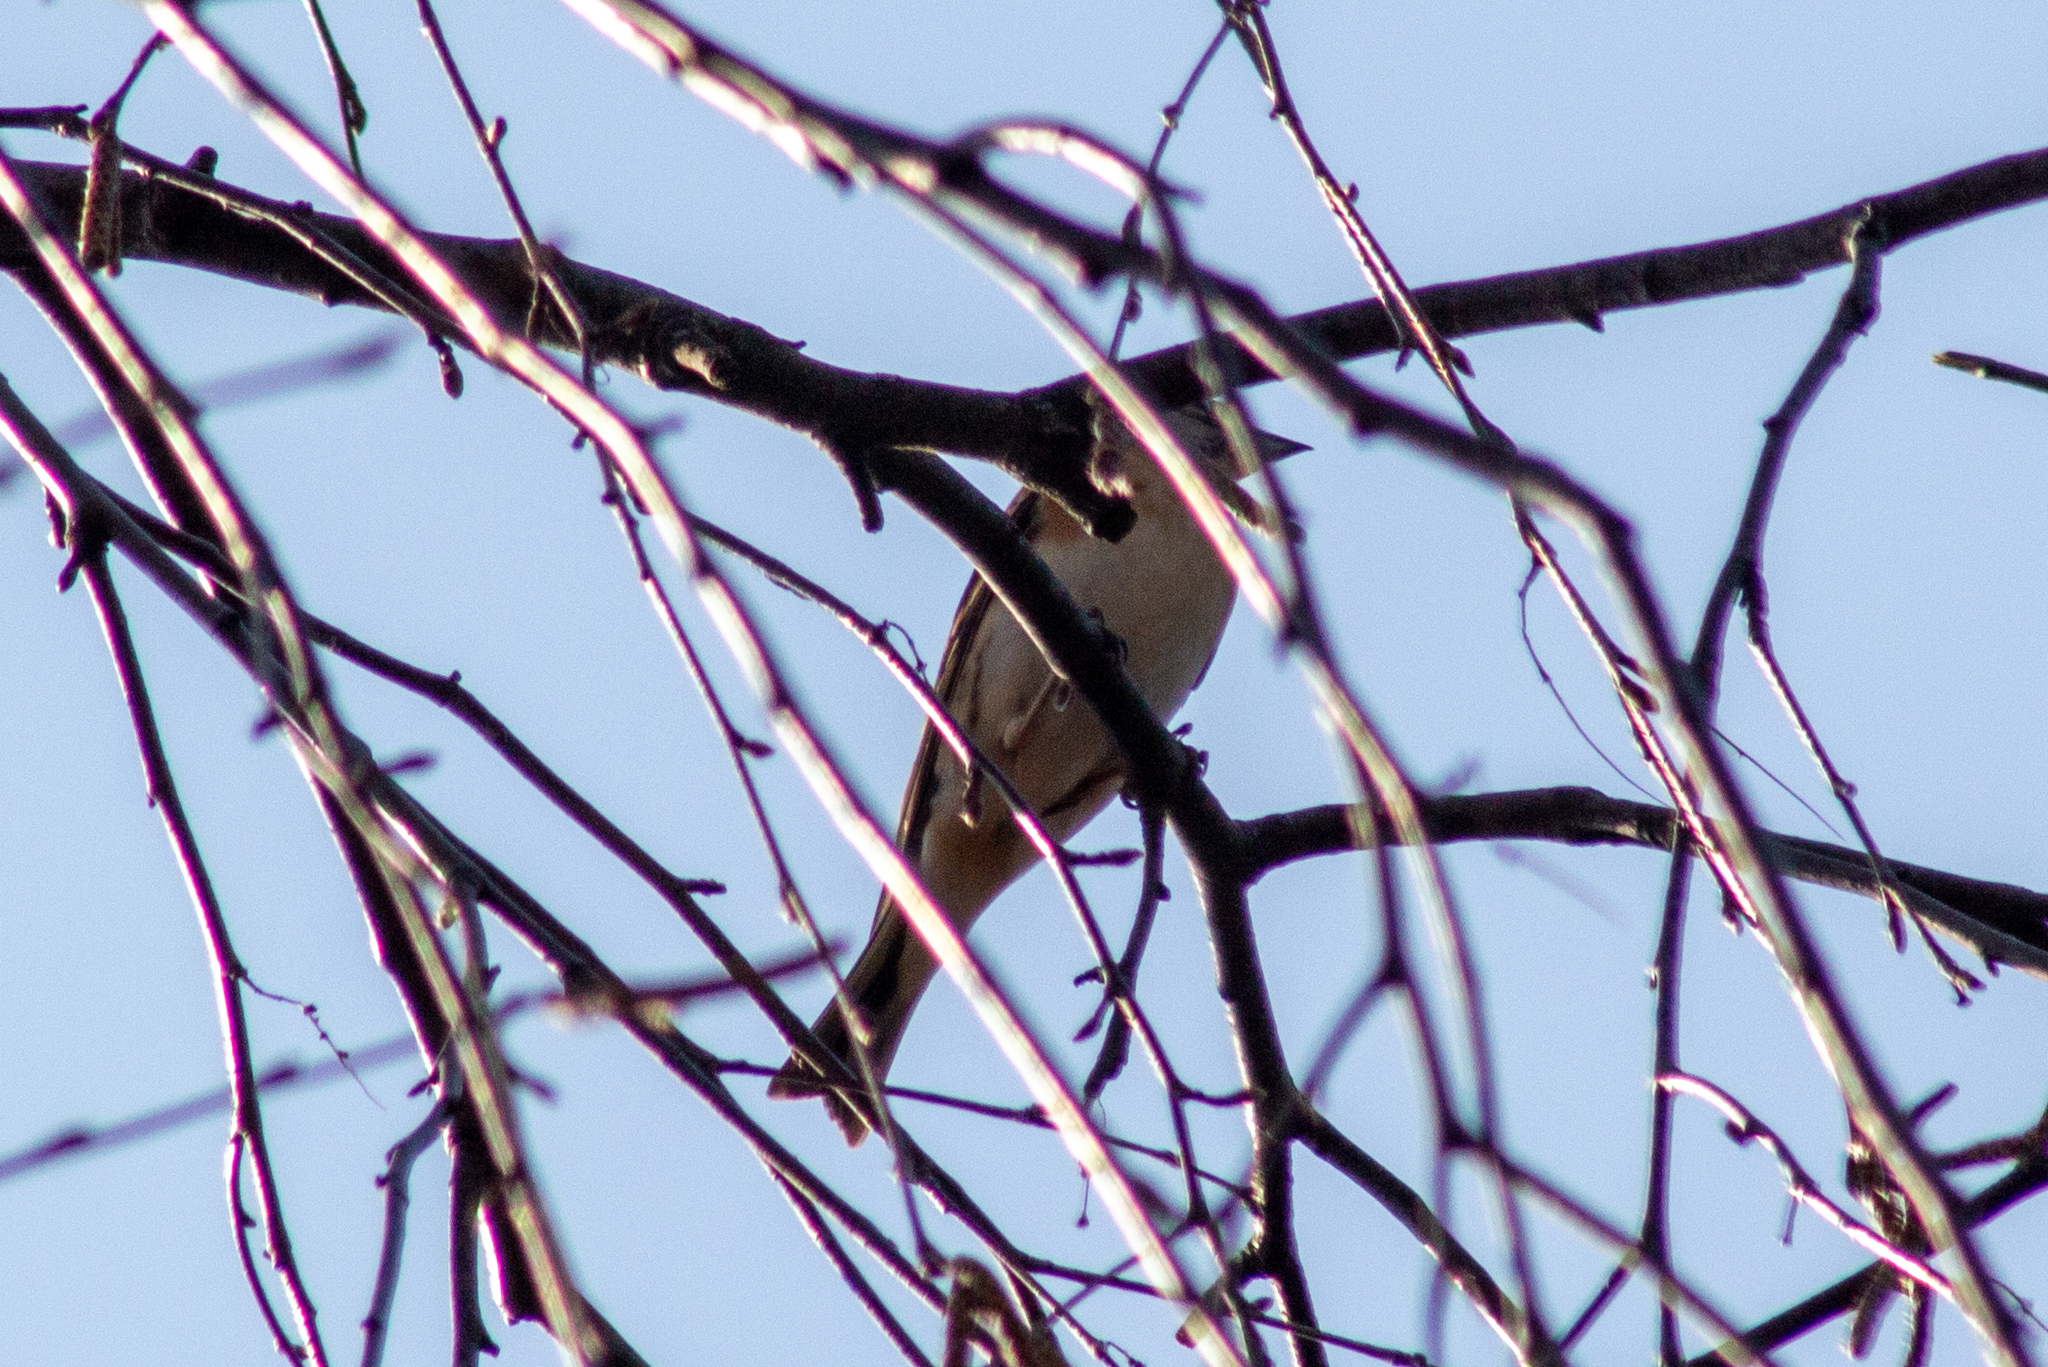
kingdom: Animalia
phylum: Chordata
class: Aves
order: Passeriformes
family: Fringillidae
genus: Fringilla
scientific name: Fringilla montifringilla
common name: Brambling
